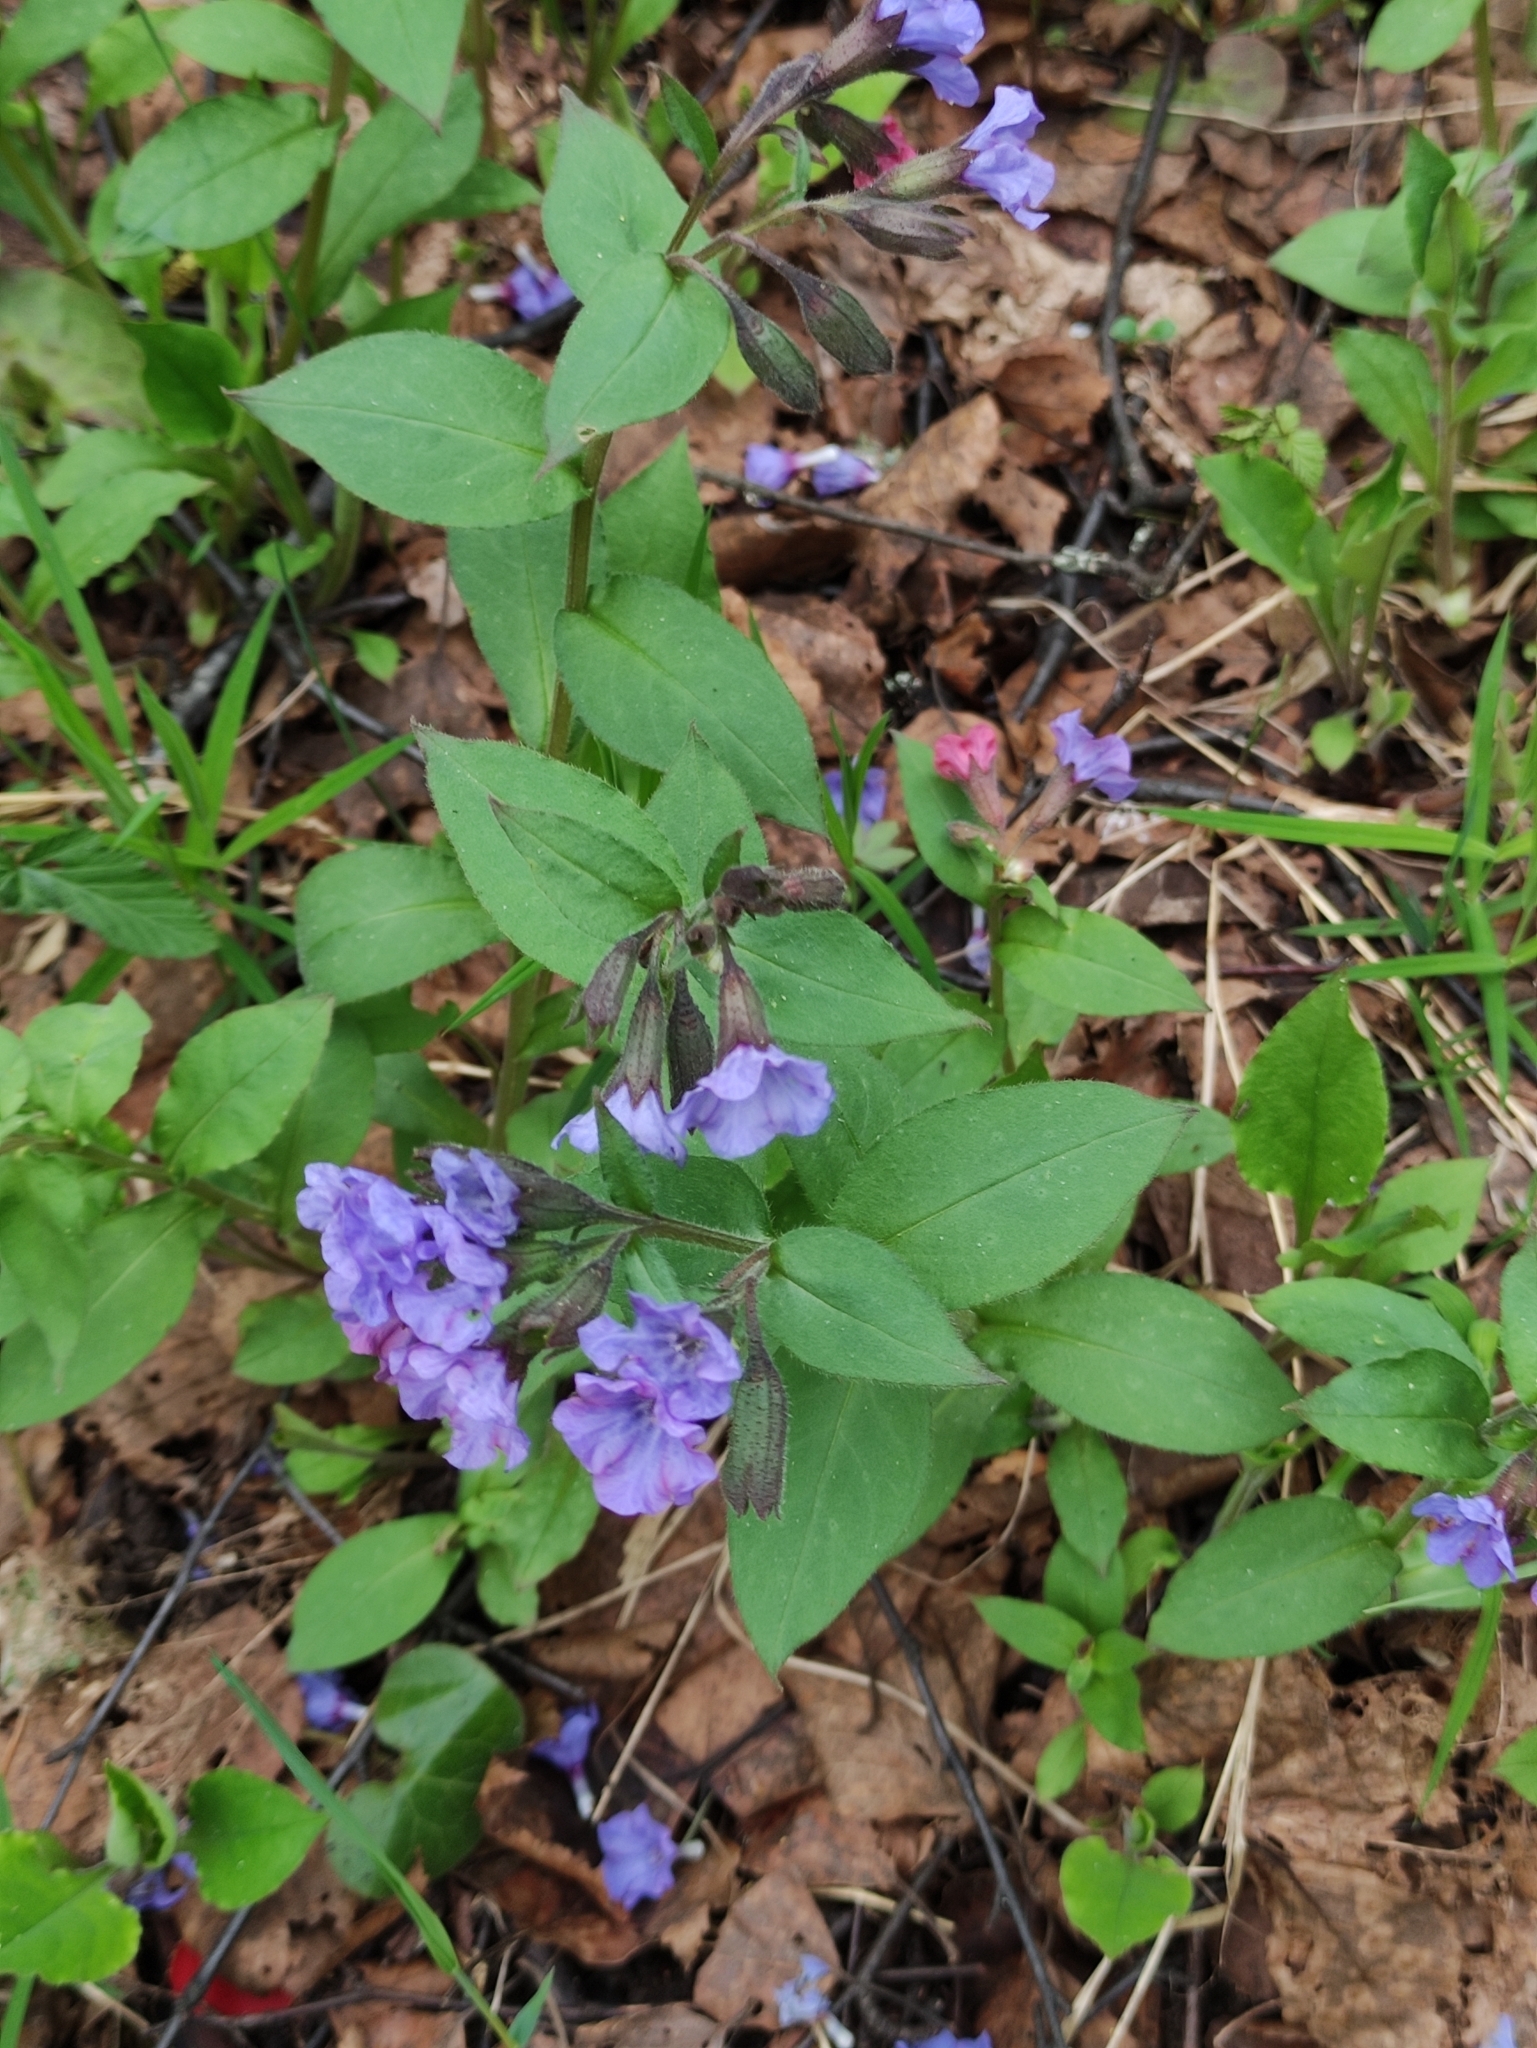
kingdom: Plantae
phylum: Tracheophyta
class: Magnoliopsida
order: Boraginales
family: Boraginaceae
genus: Pulmonaria
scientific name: Pulmonaria obscura
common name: Suffolk lungwort
